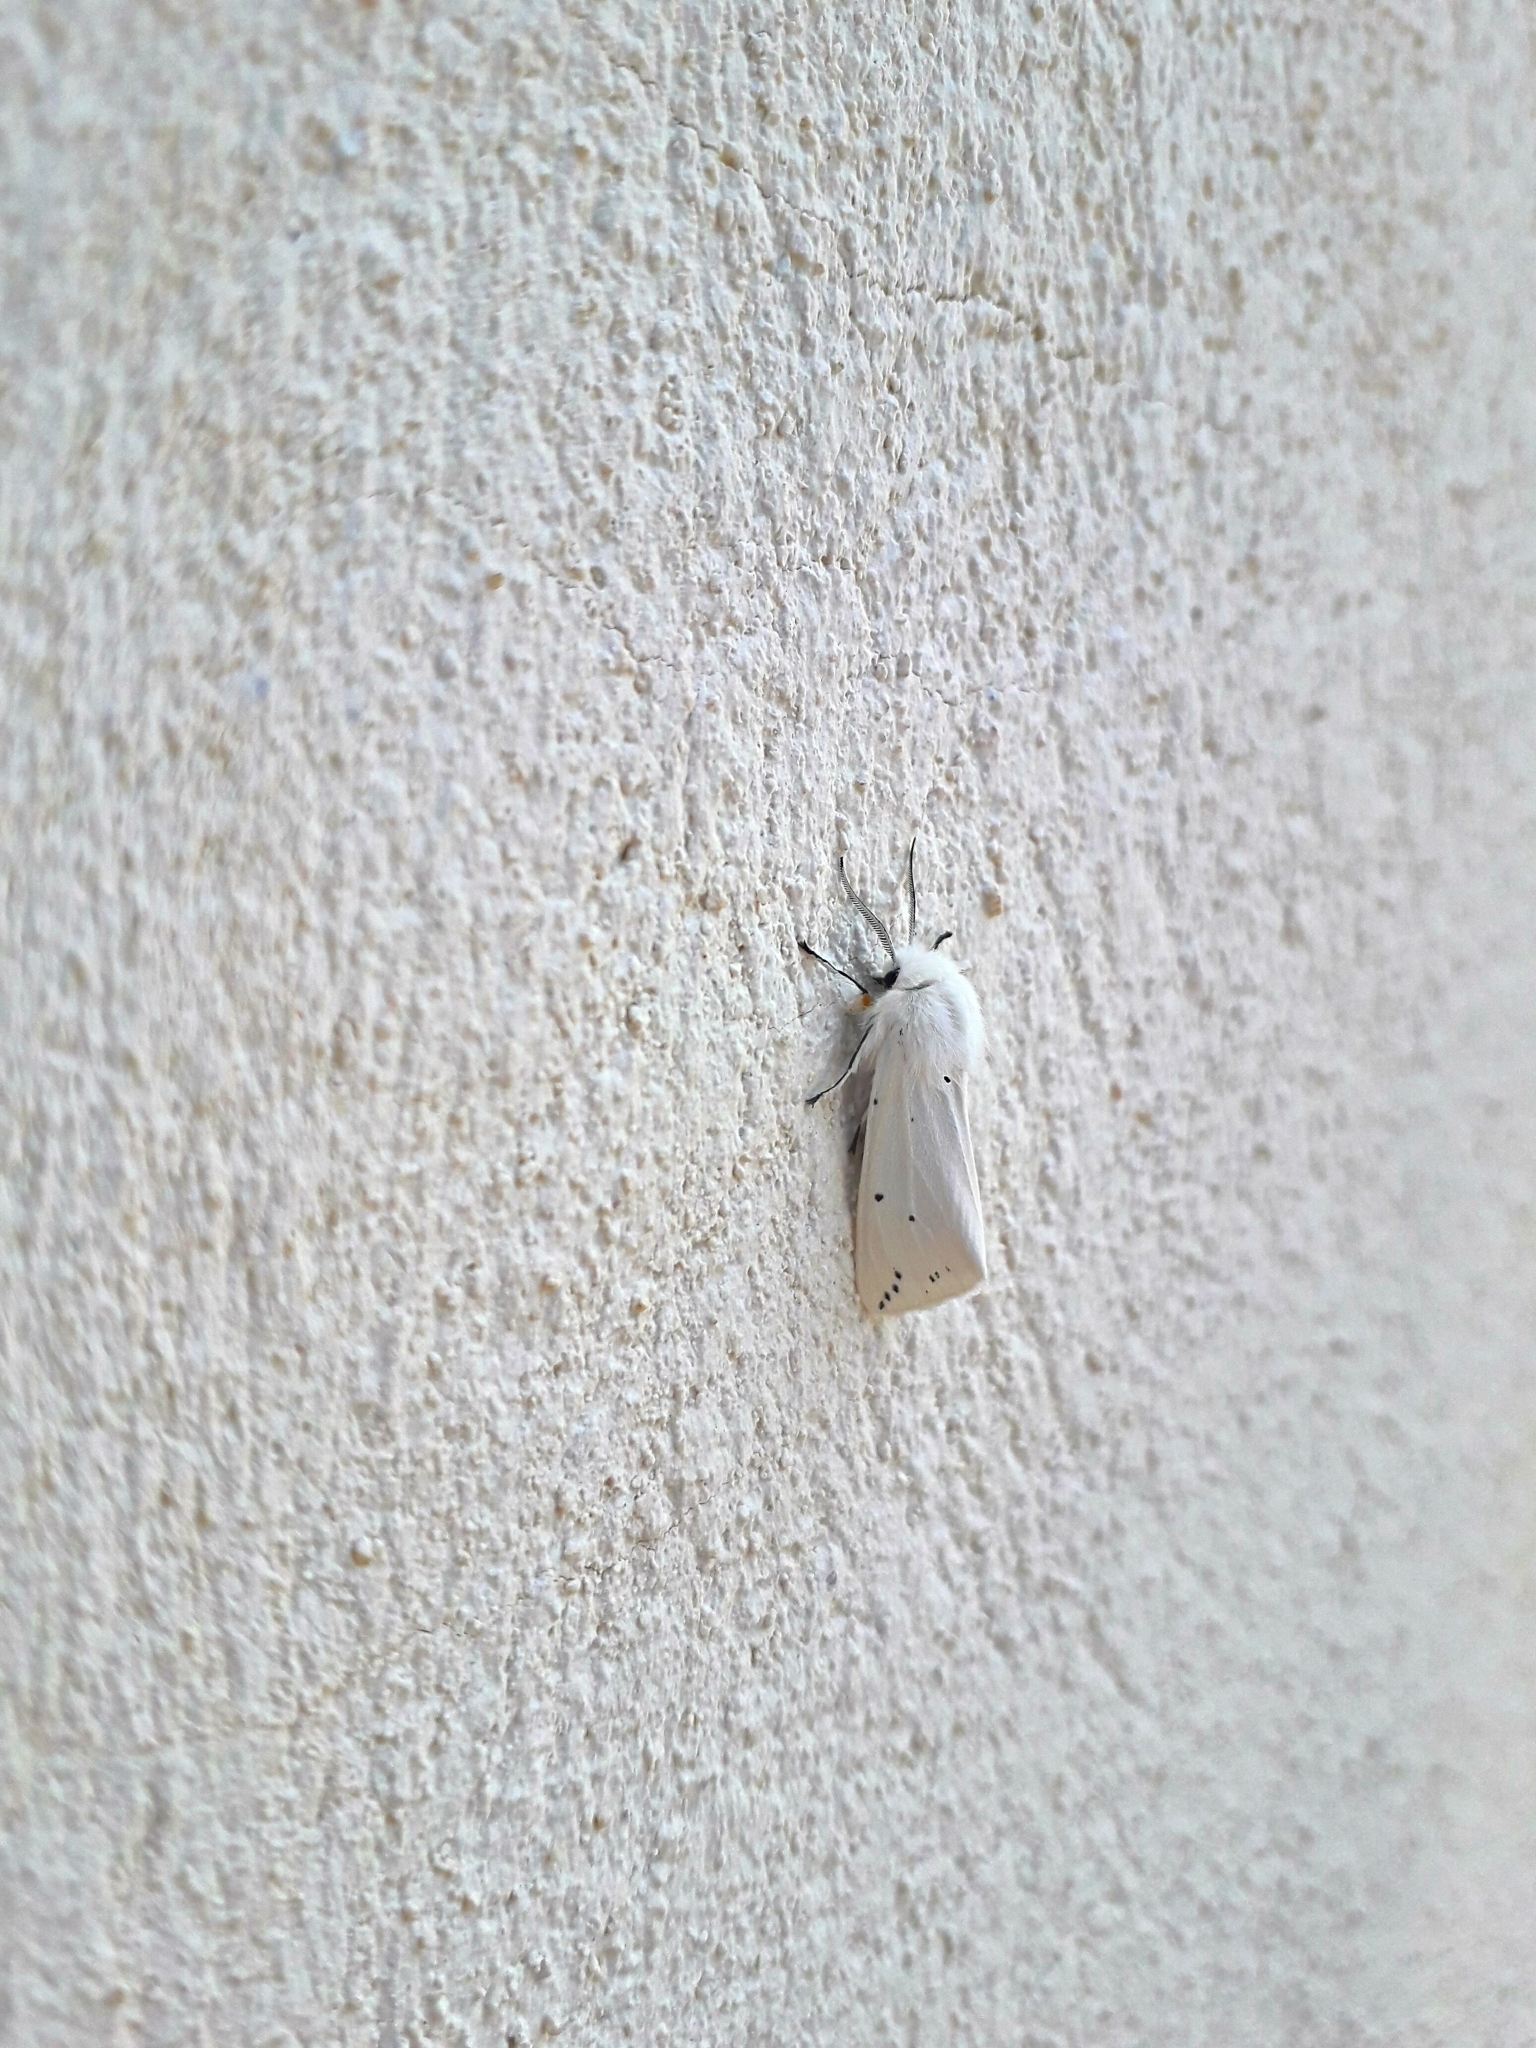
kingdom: Animalia
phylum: Arthropoda
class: Insecta
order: Lepidoptera
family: Erebidae
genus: Spilosoma
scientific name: Spilosoma urticae
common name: Water ermine
